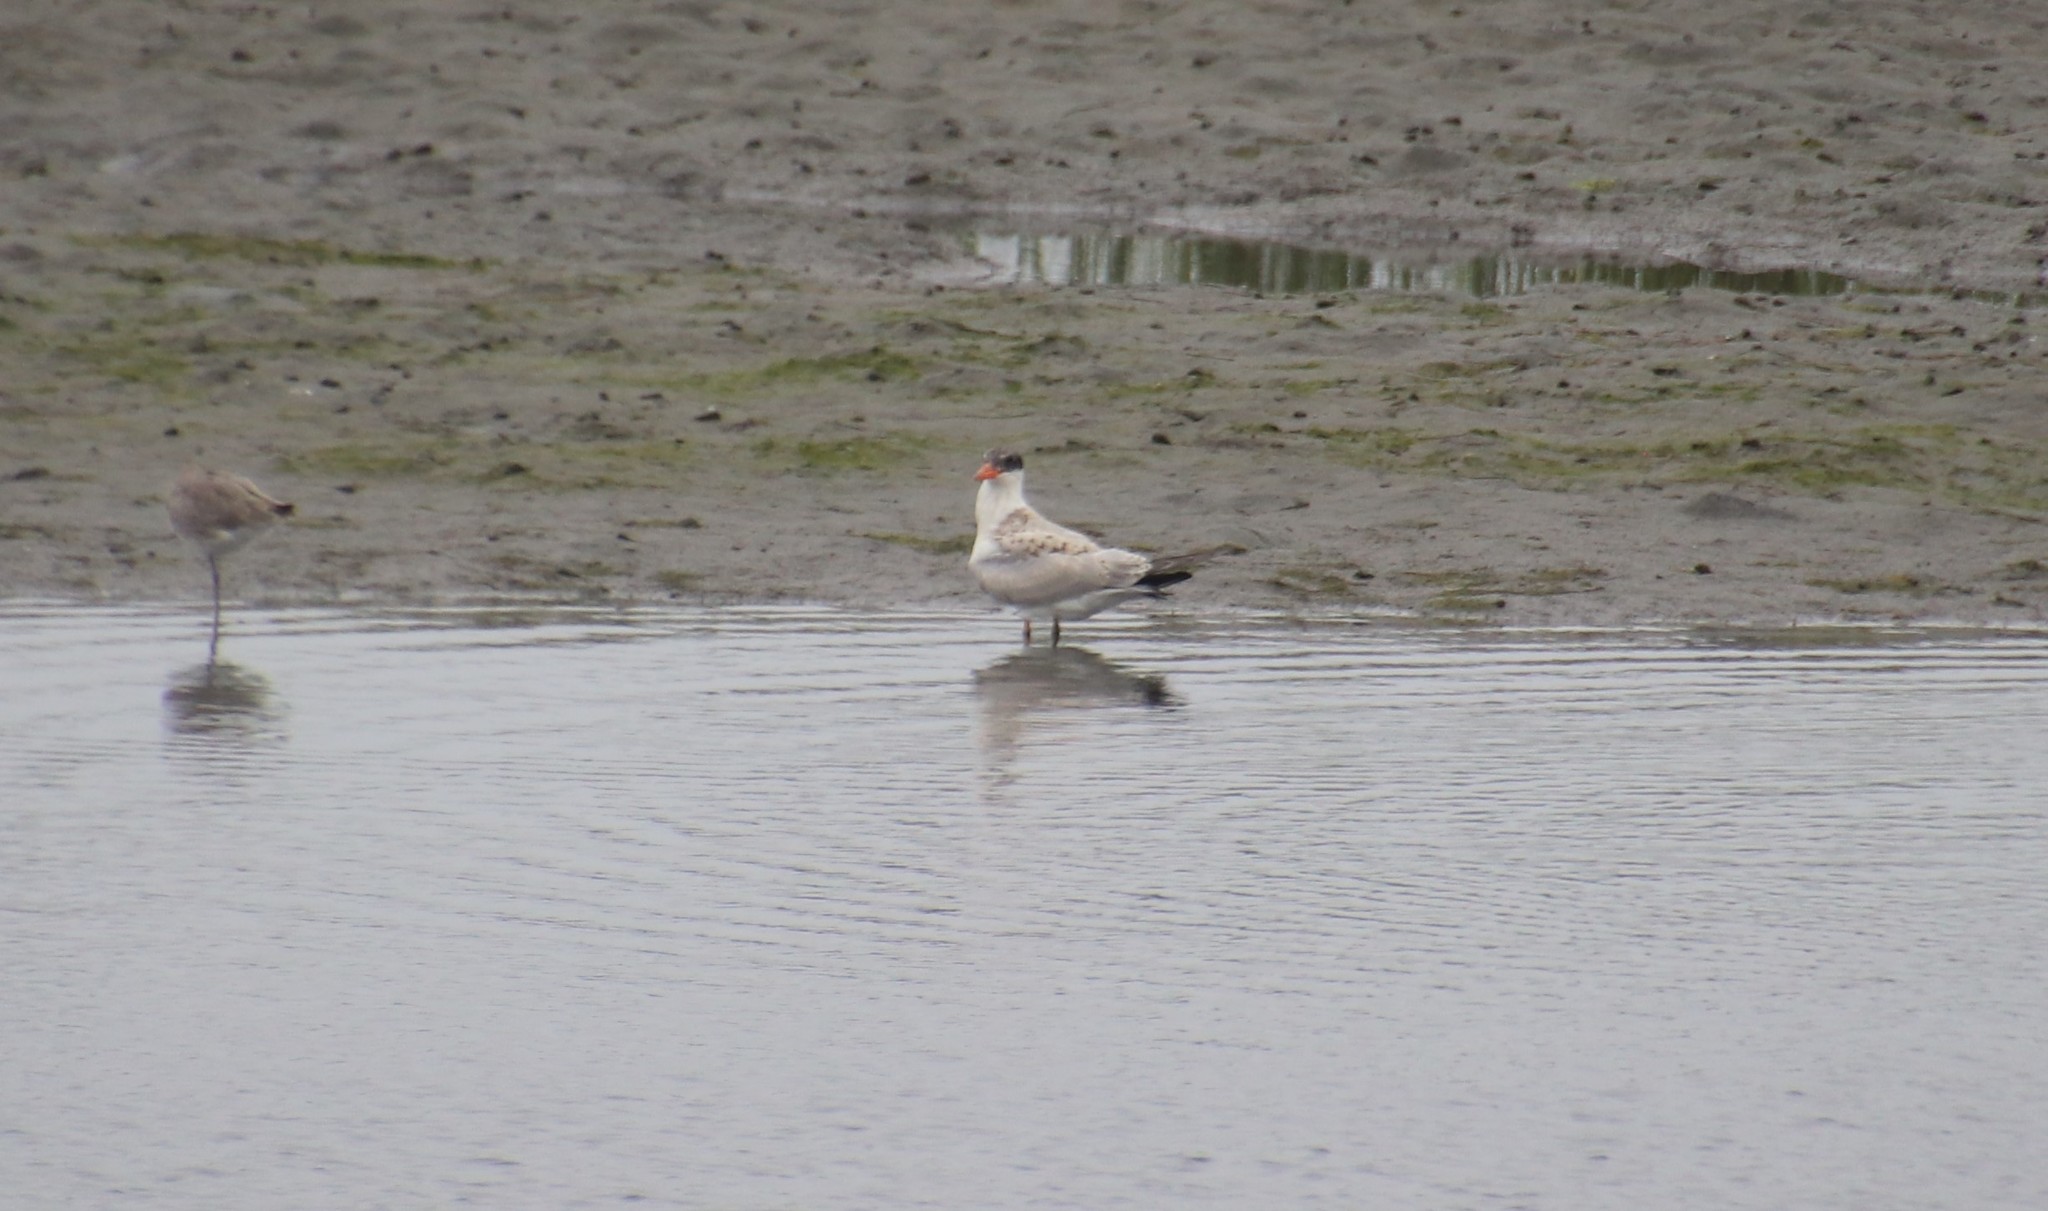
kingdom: Animalia
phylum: Chordata
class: Aves
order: Charadriiformes
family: Laridae
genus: Hydroprogne
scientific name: Hydroprogne caspia
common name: Caspian tern
